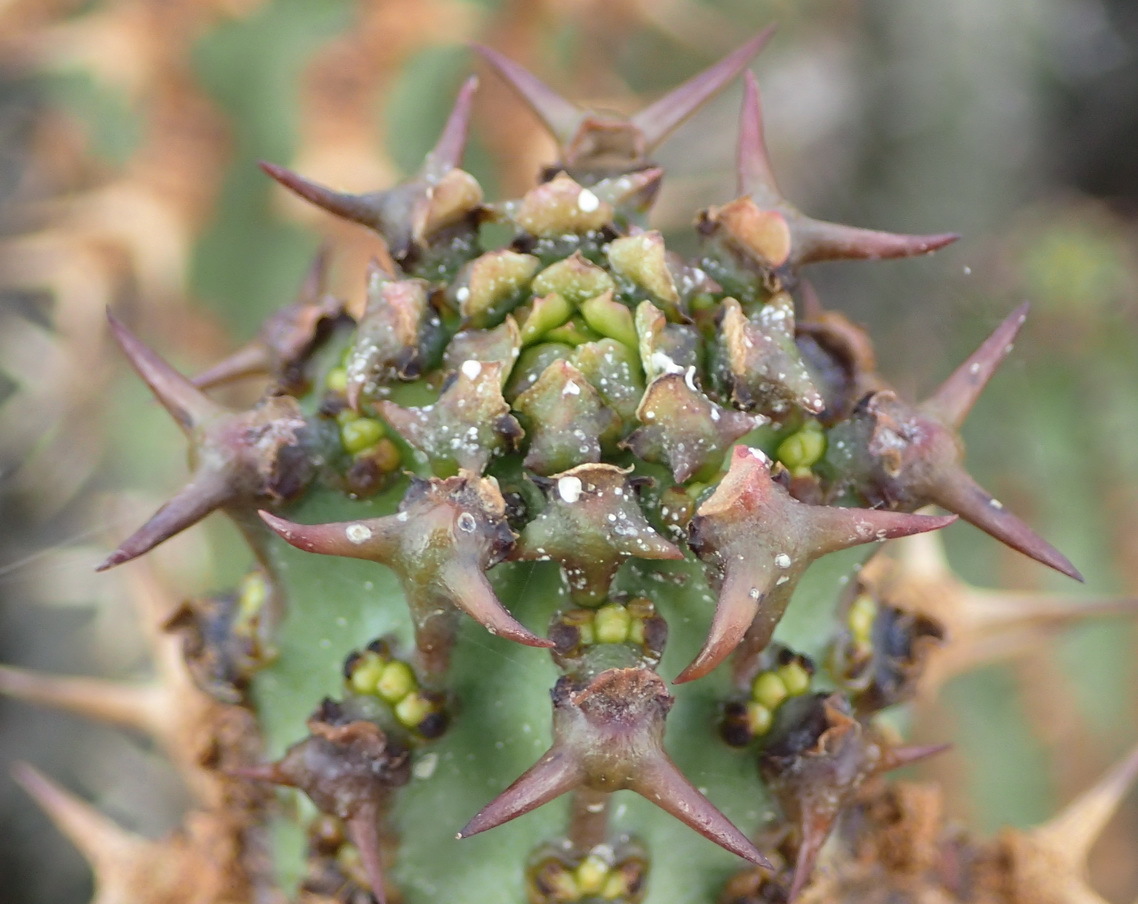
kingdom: Plantae
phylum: Tracheophyta
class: Magnoliopsida
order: Malpighiales
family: Euphorbiaceae
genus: Euphorbia
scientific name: Euphorbia radyeri
